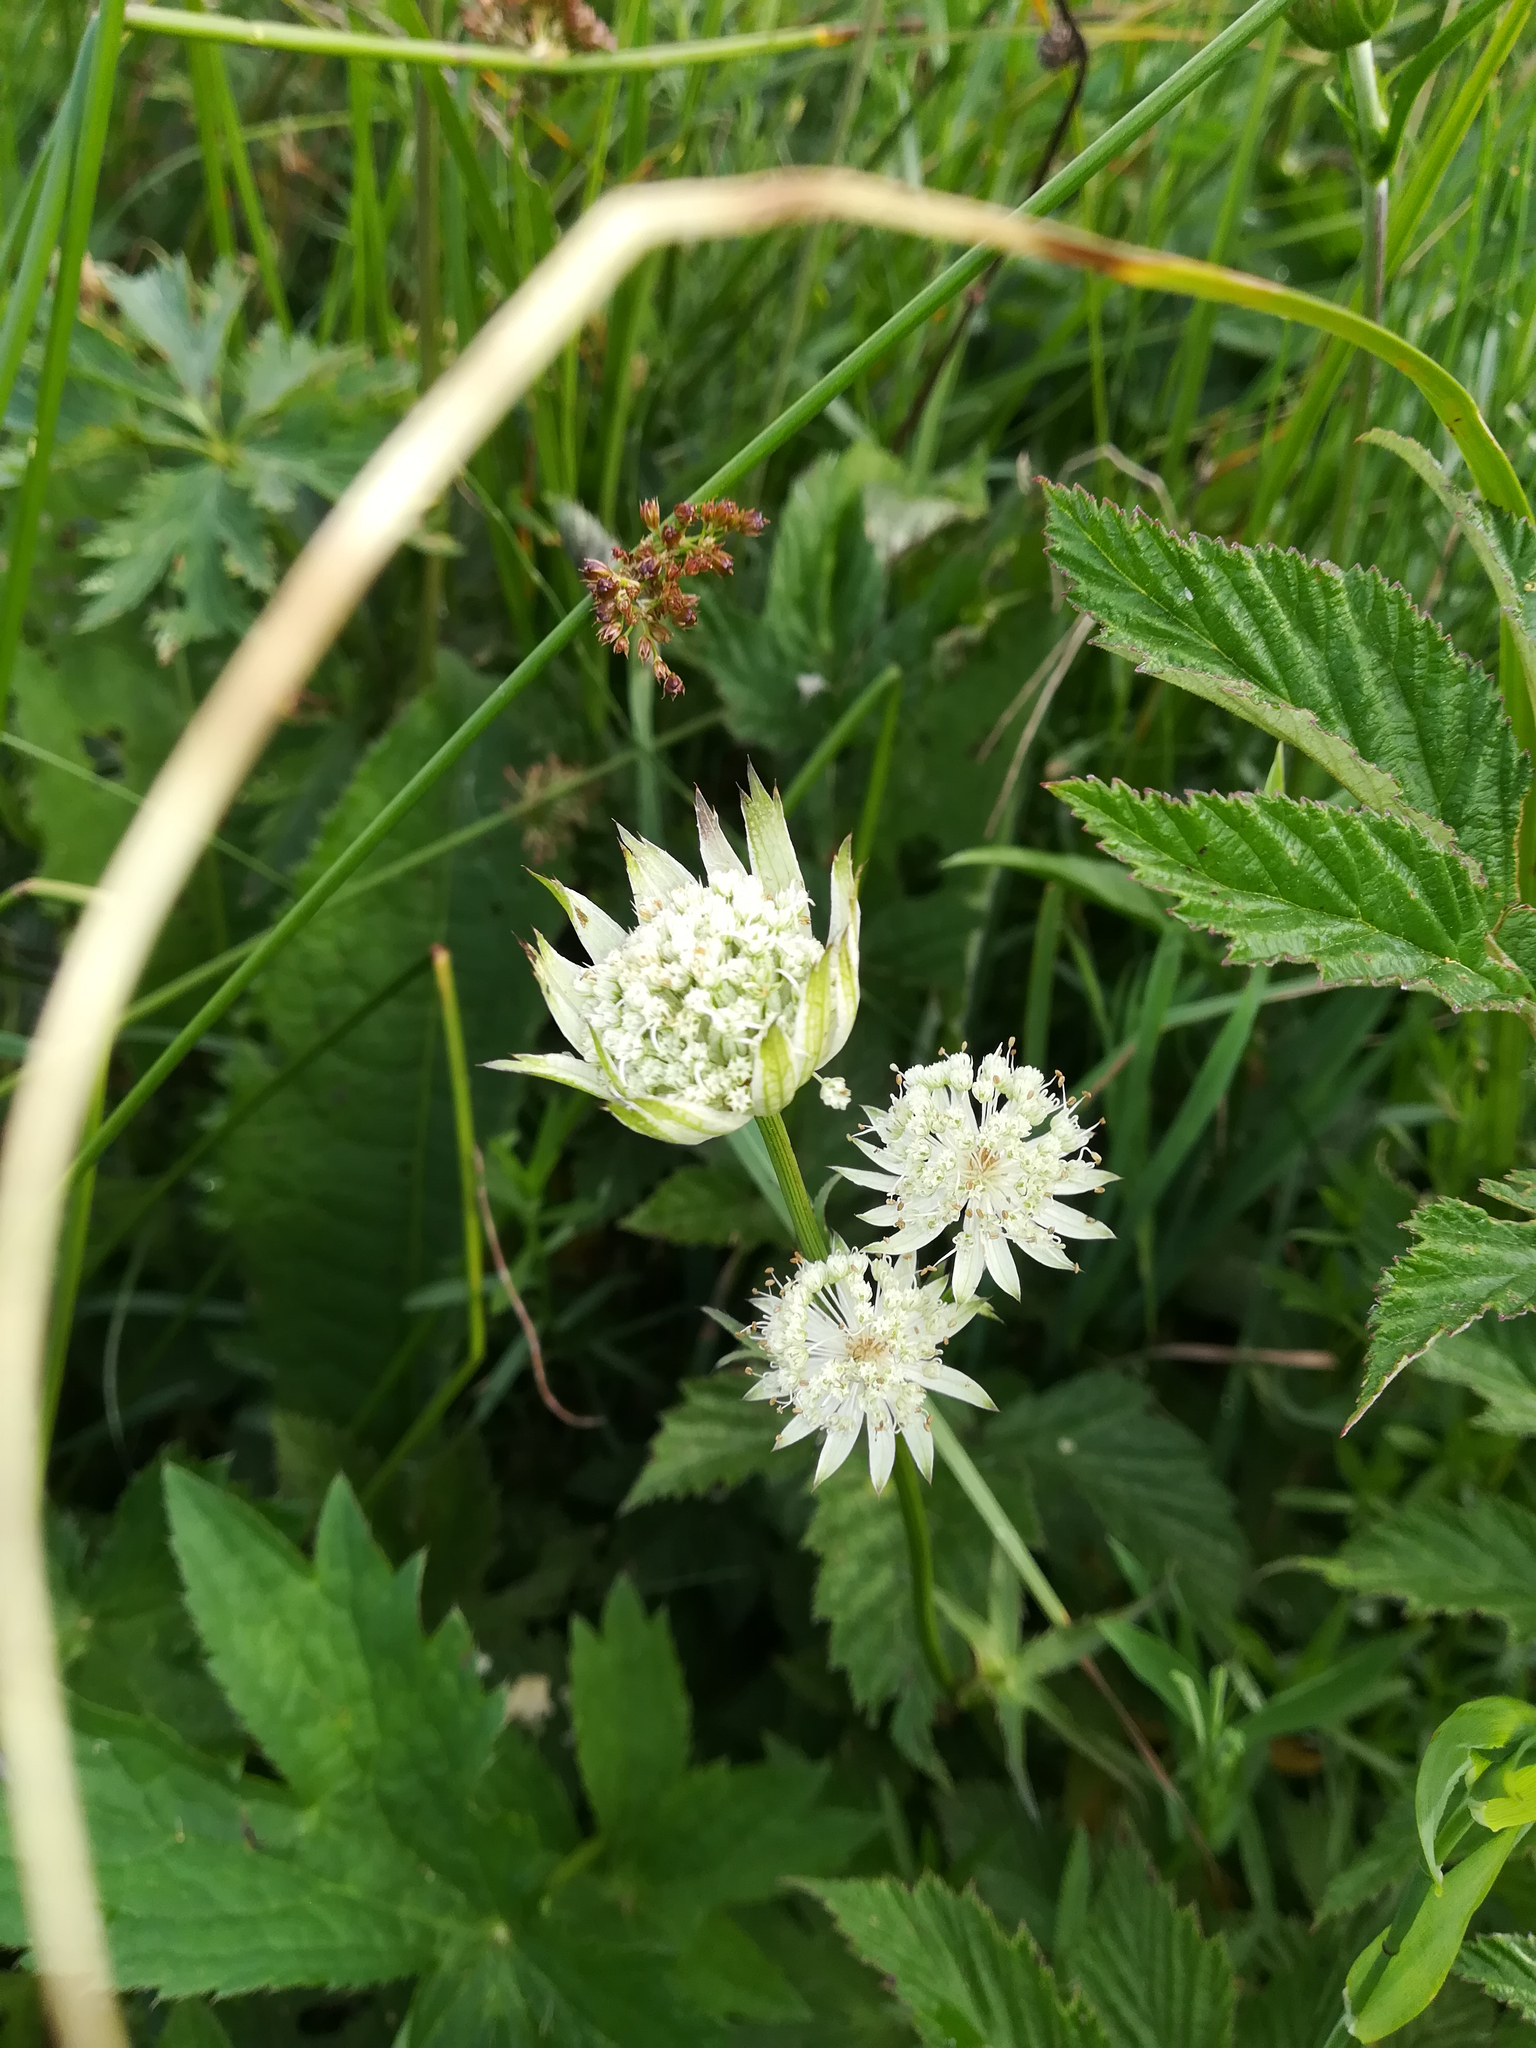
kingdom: Plantae
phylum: Tracheophyta
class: Magnoliopsida
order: Apiales
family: Apiaceae
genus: Astrantia
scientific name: Astrantia major
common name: Greater masterwort
